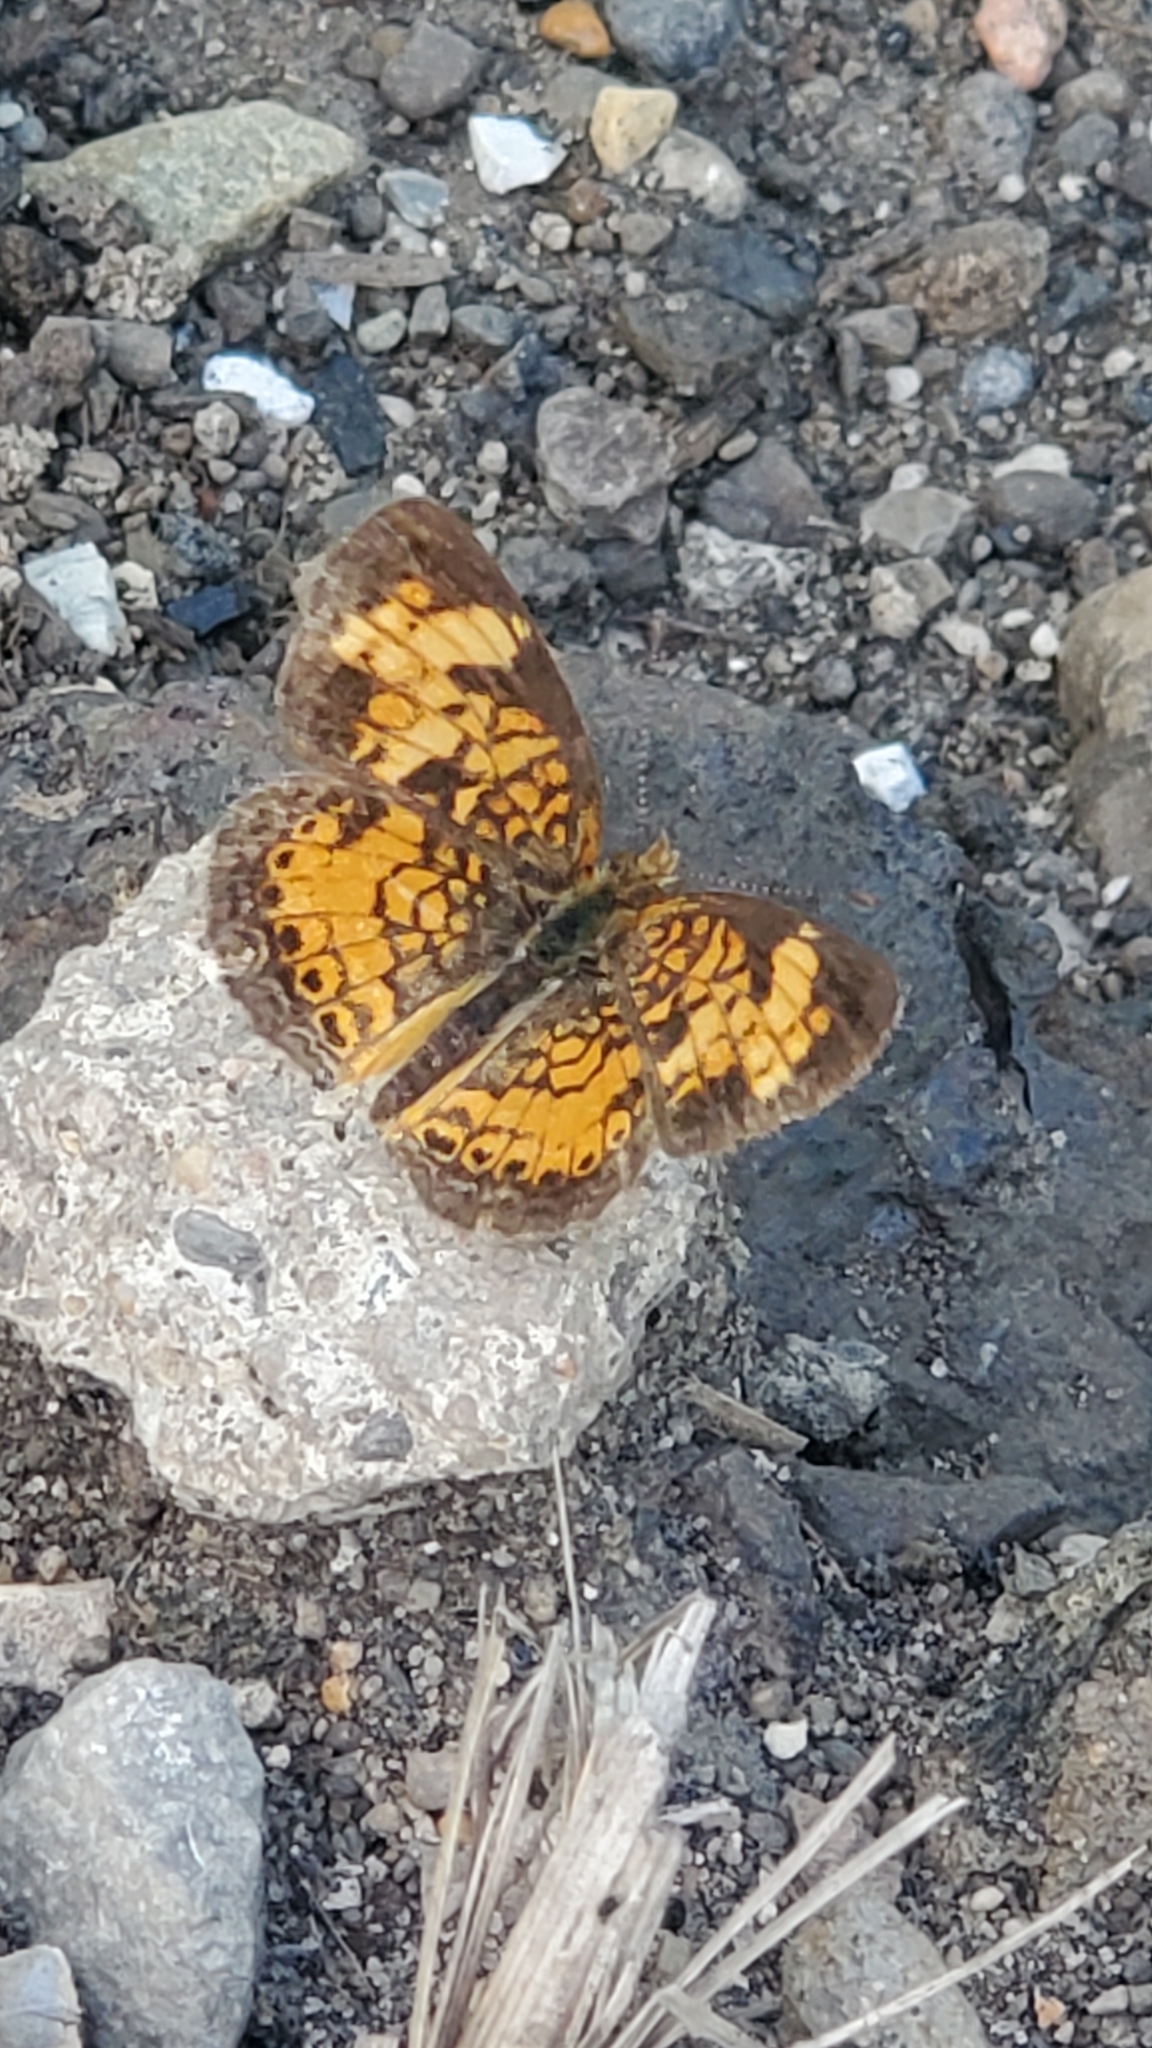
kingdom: Animalia
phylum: Arthropoda
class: Insecta
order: Lepidoptera
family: Nymphalidae
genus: Phyciodes
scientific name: Phyciodes tharos
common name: Pearl crescent
